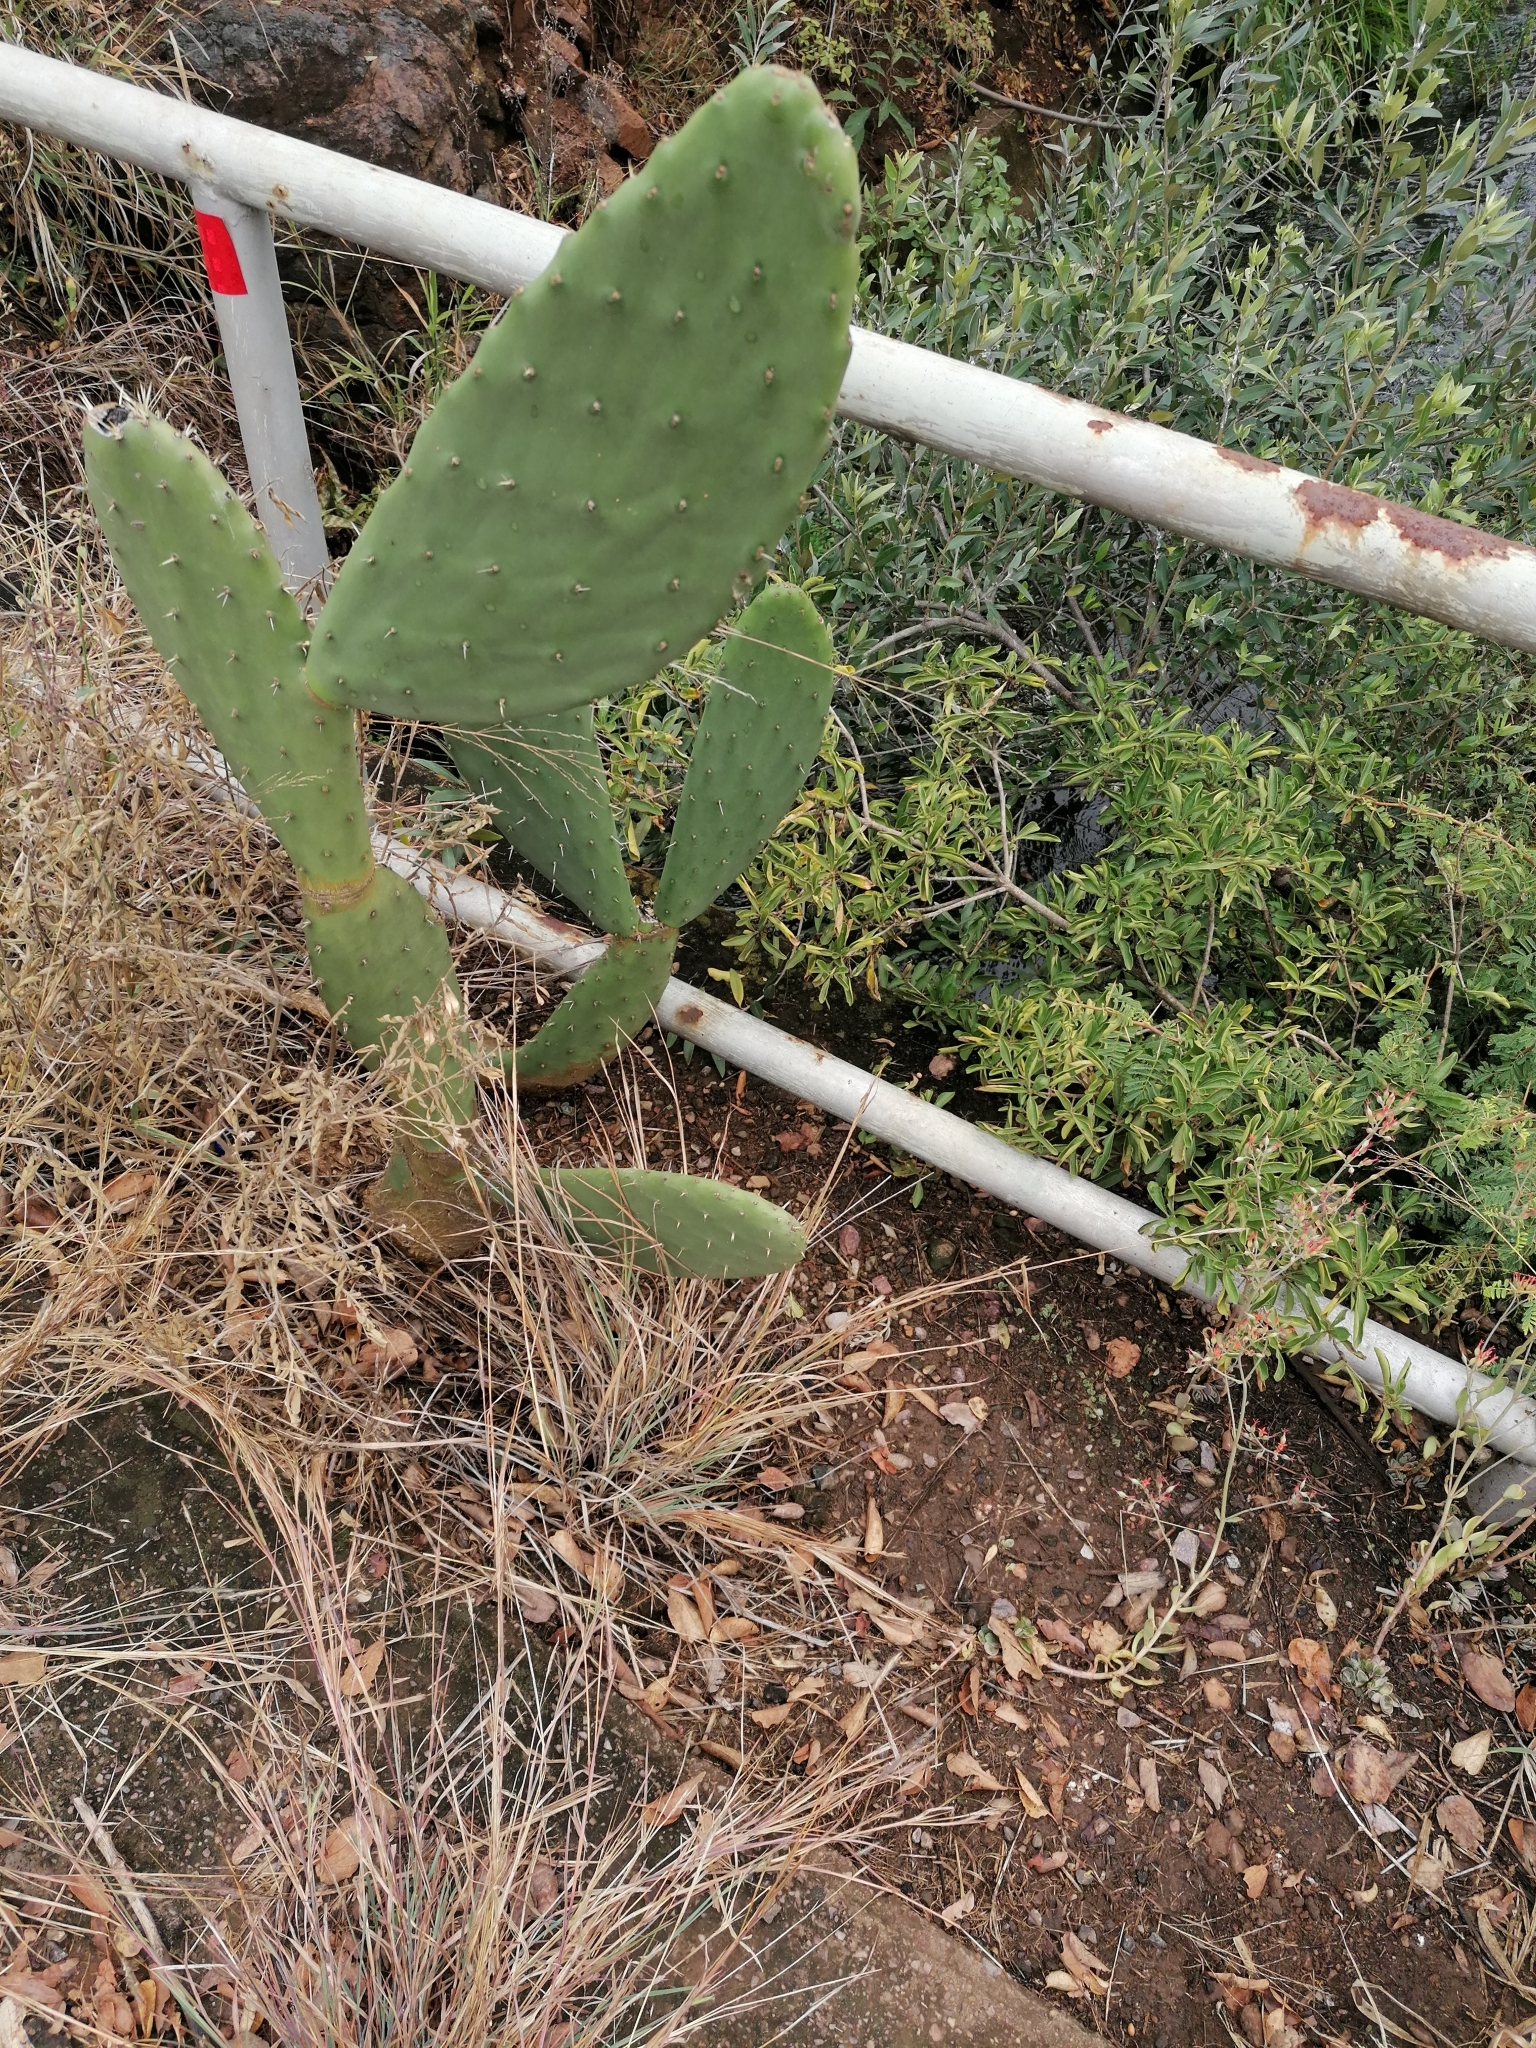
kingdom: Plantae
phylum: Tracheophyta
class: Magnoliopsida
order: Caryophyllales
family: Cactaceae
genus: Opuntia
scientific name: Opuntia ficus-indica
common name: Barbary fig
